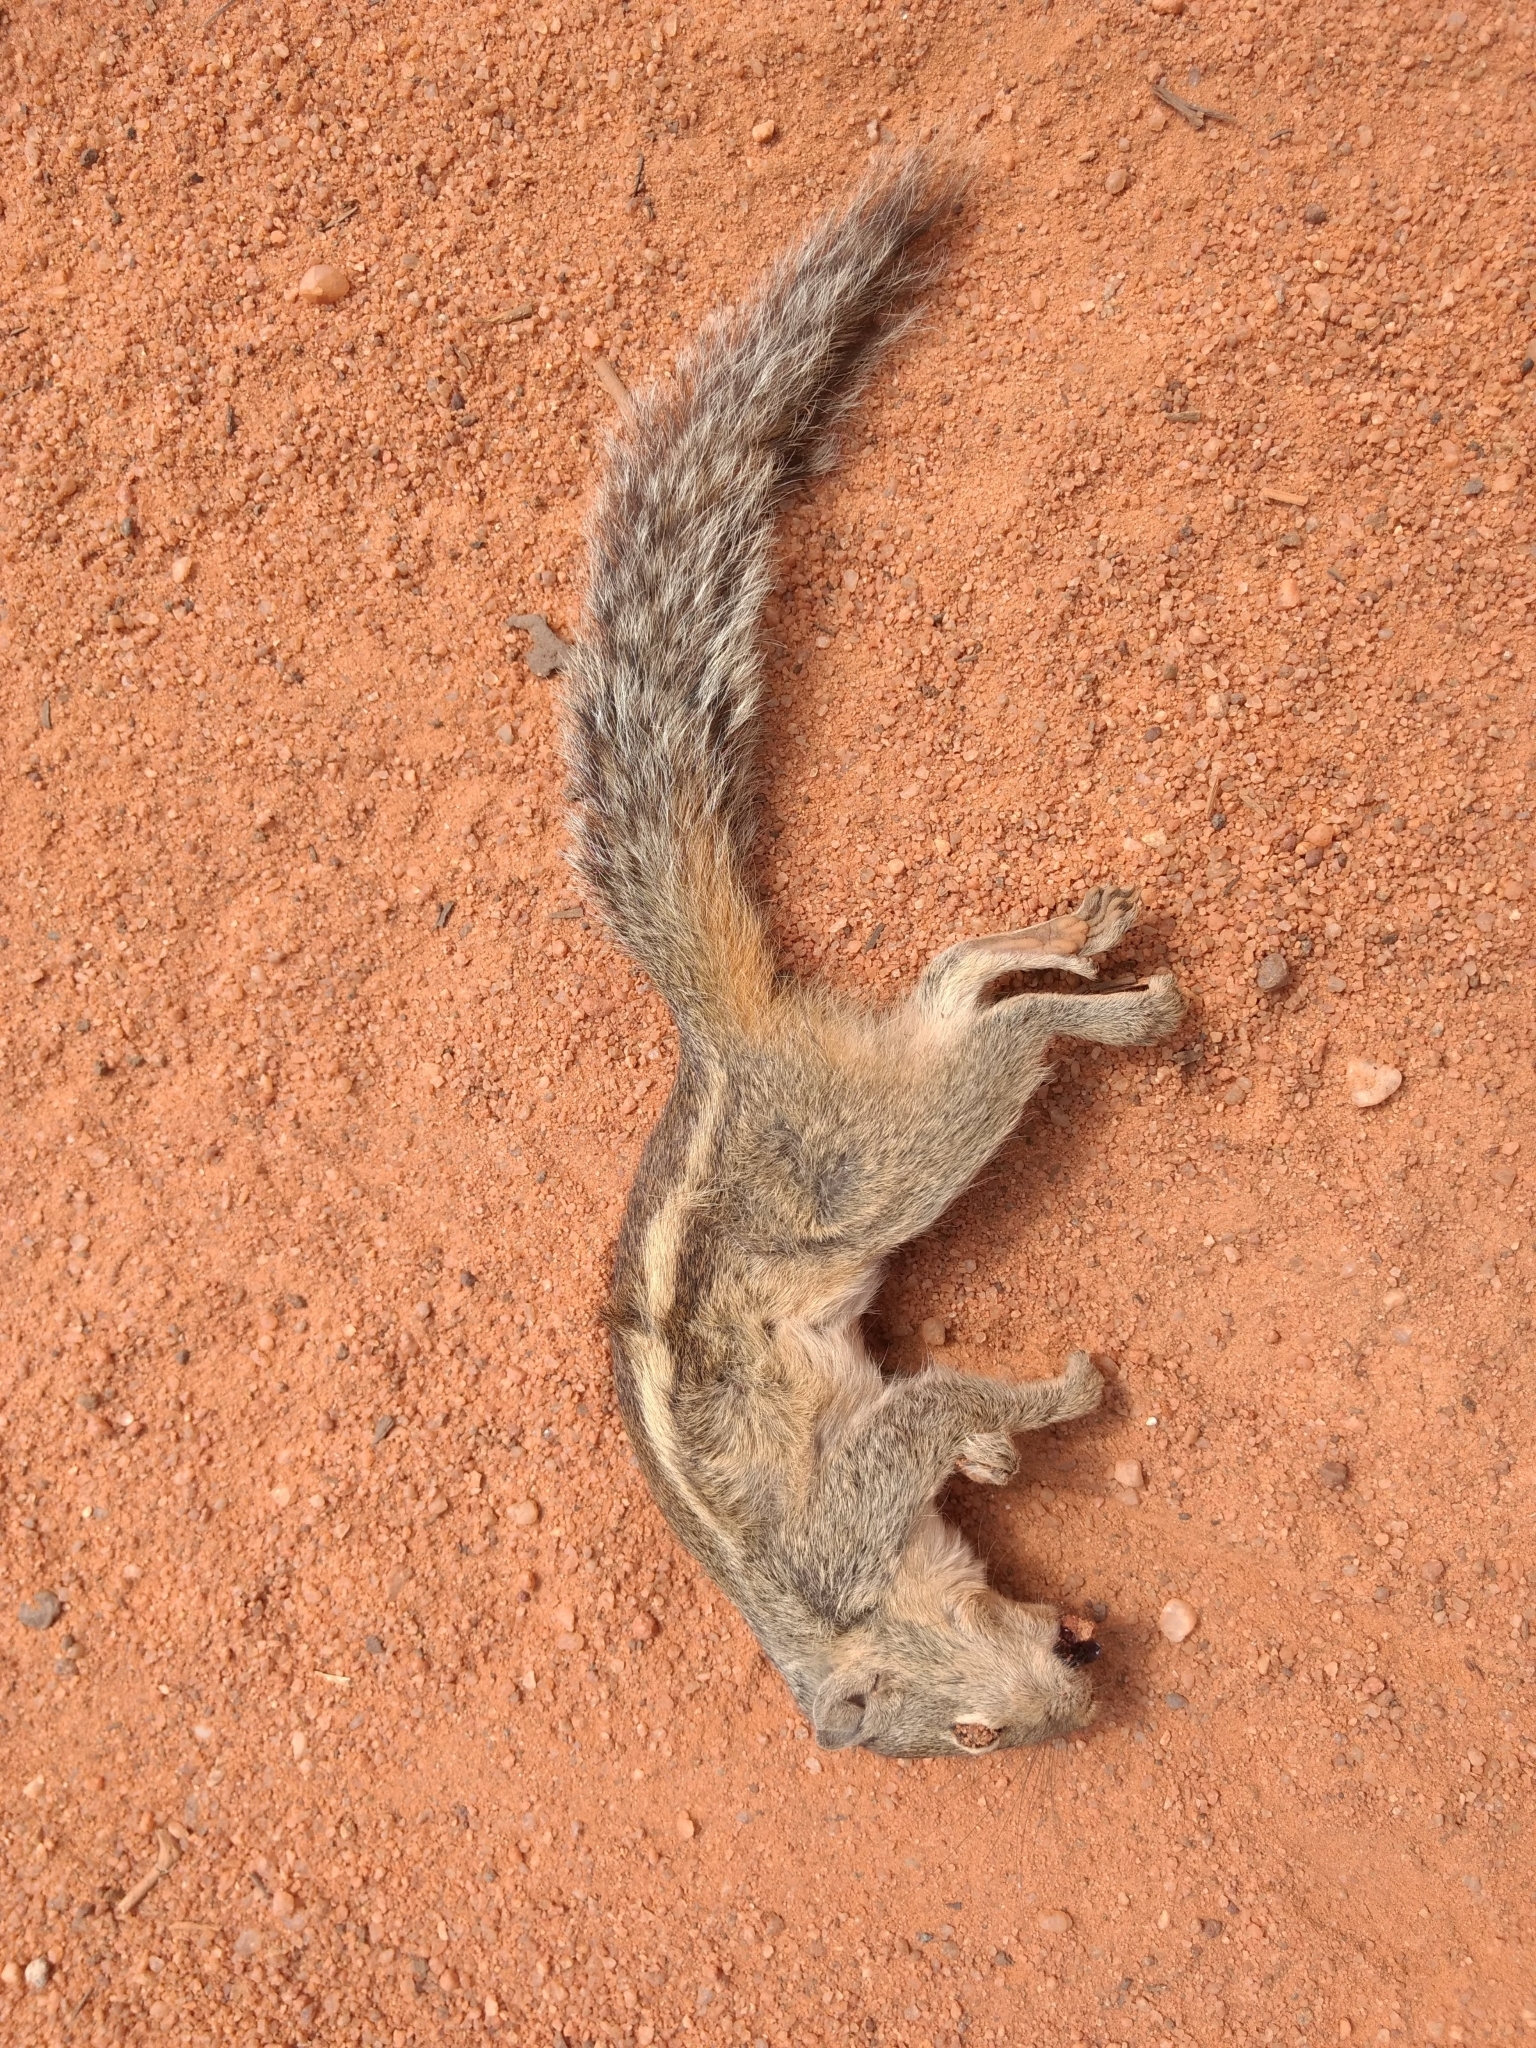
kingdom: Animalia
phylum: Chordata
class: Mammalia
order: Rodentia
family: Sciuridae
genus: Funambulus
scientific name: Funambulus palmarum
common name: Indian palm squirrel
